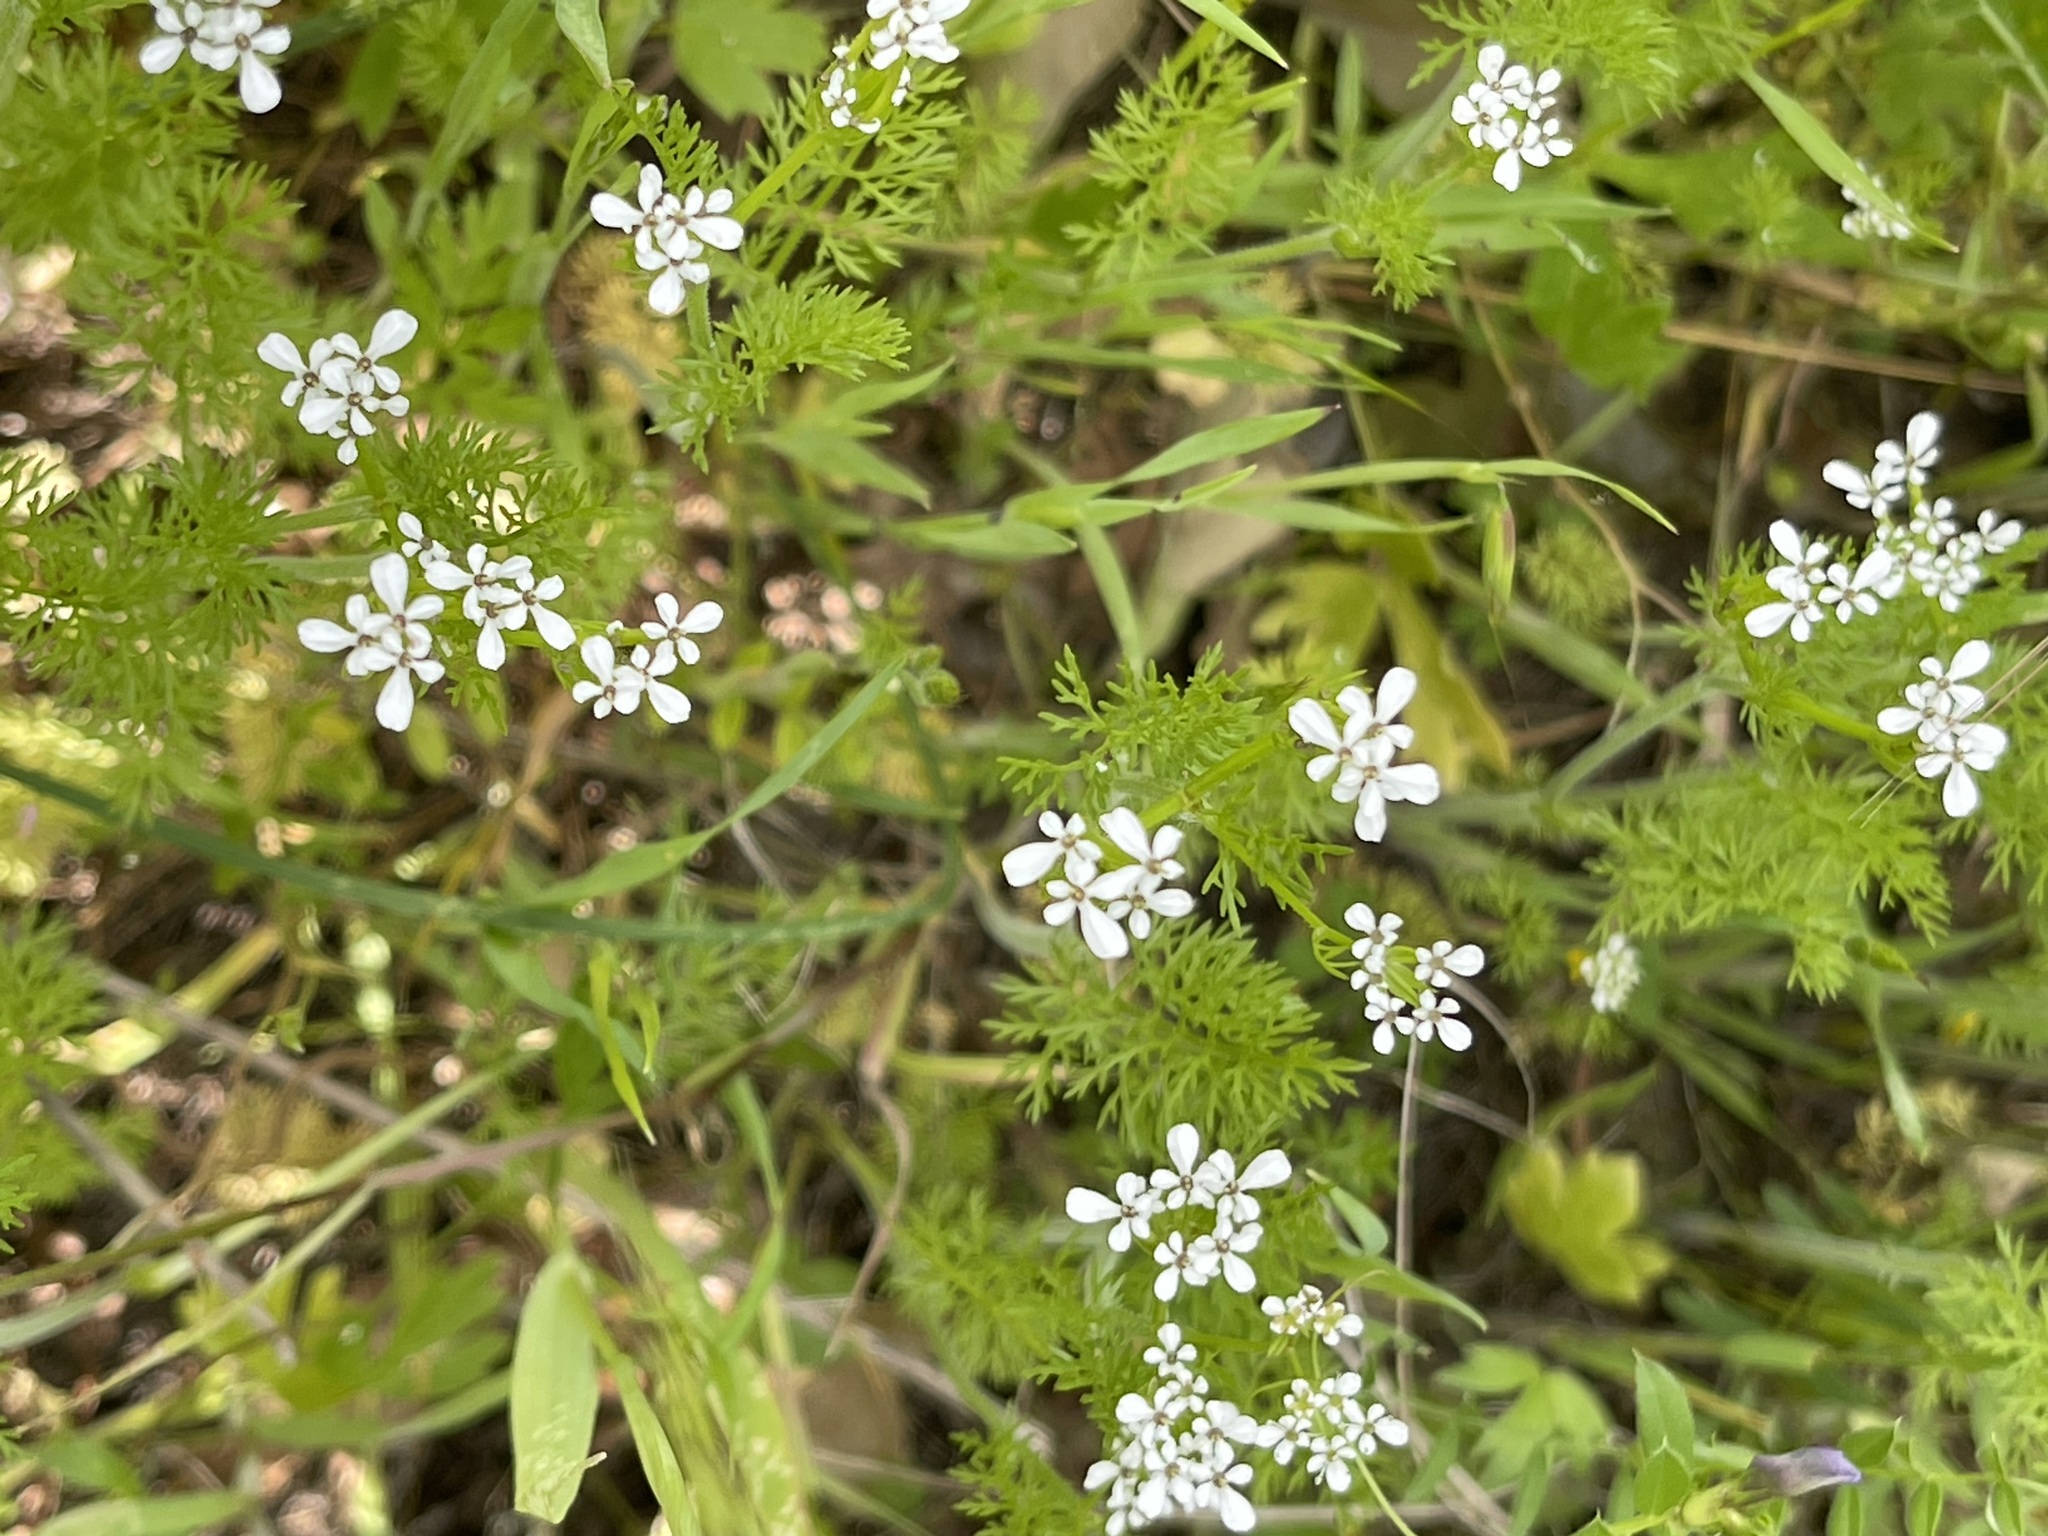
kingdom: Plantae
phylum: Tracheophyta
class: Magnoliopsida
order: Apiales
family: Apiaceae
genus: Scandix
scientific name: Scandix pecten-veneris
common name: Shepherd's-needle
